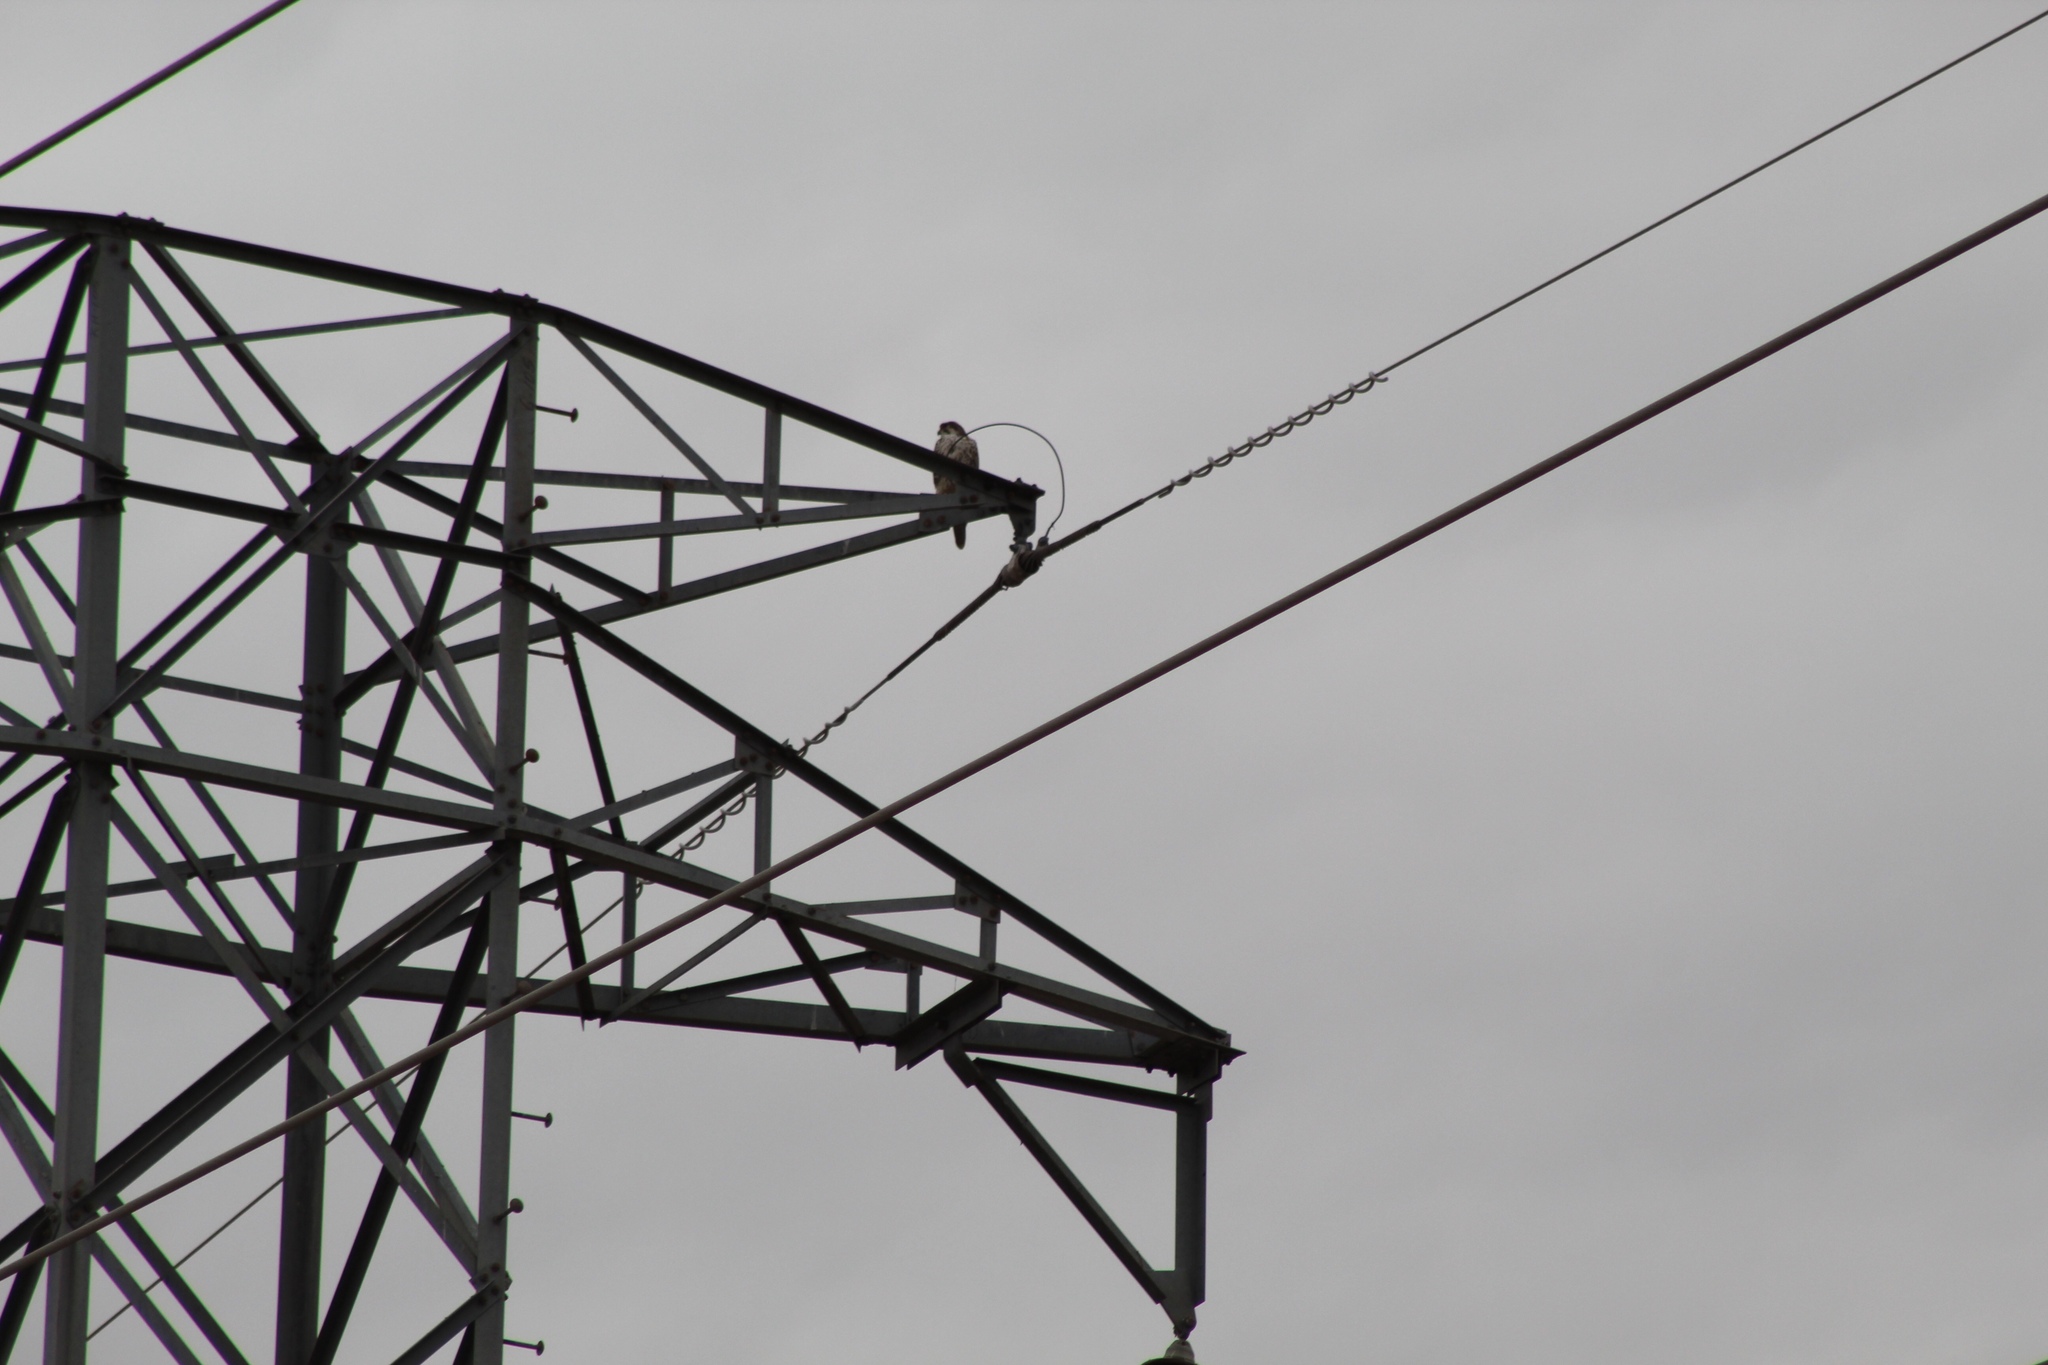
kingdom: Animalia
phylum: Chordata
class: Aves
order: Falconiformes
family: Falconidae
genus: Falco
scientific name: Falco mexicanus
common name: Prairie falcon
